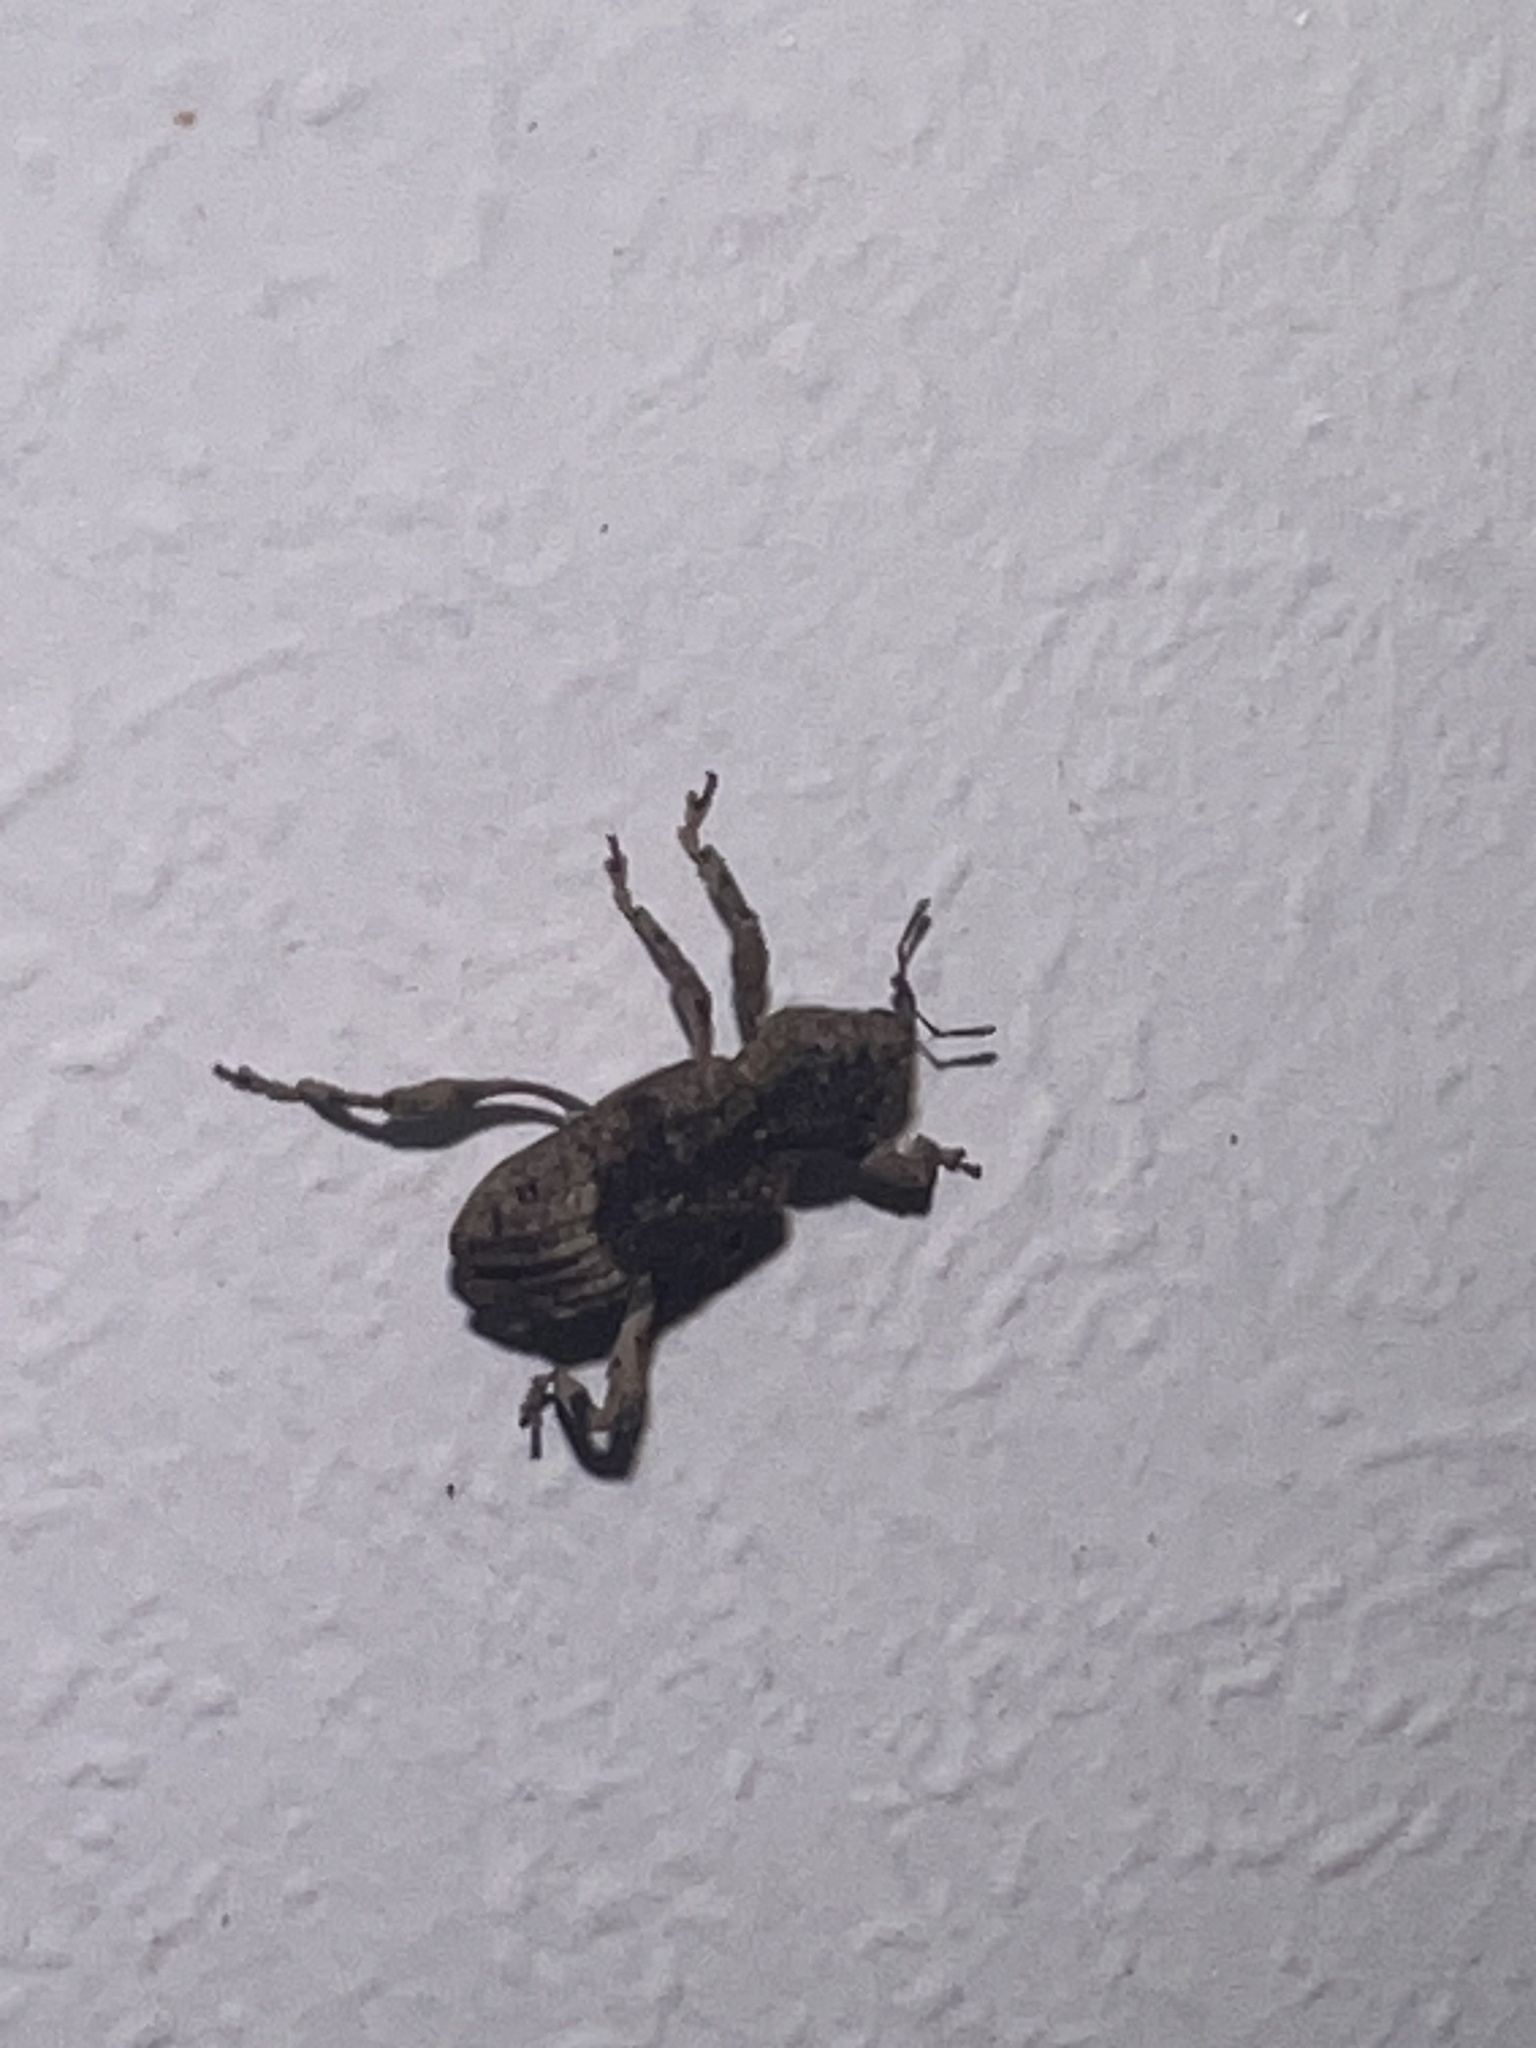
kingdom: Animalia
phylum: Arthropoda
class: Insecta
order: Coleoptera
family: Curculionidae
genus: Camptorhinus
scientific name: Camptorhinus dorsalis
